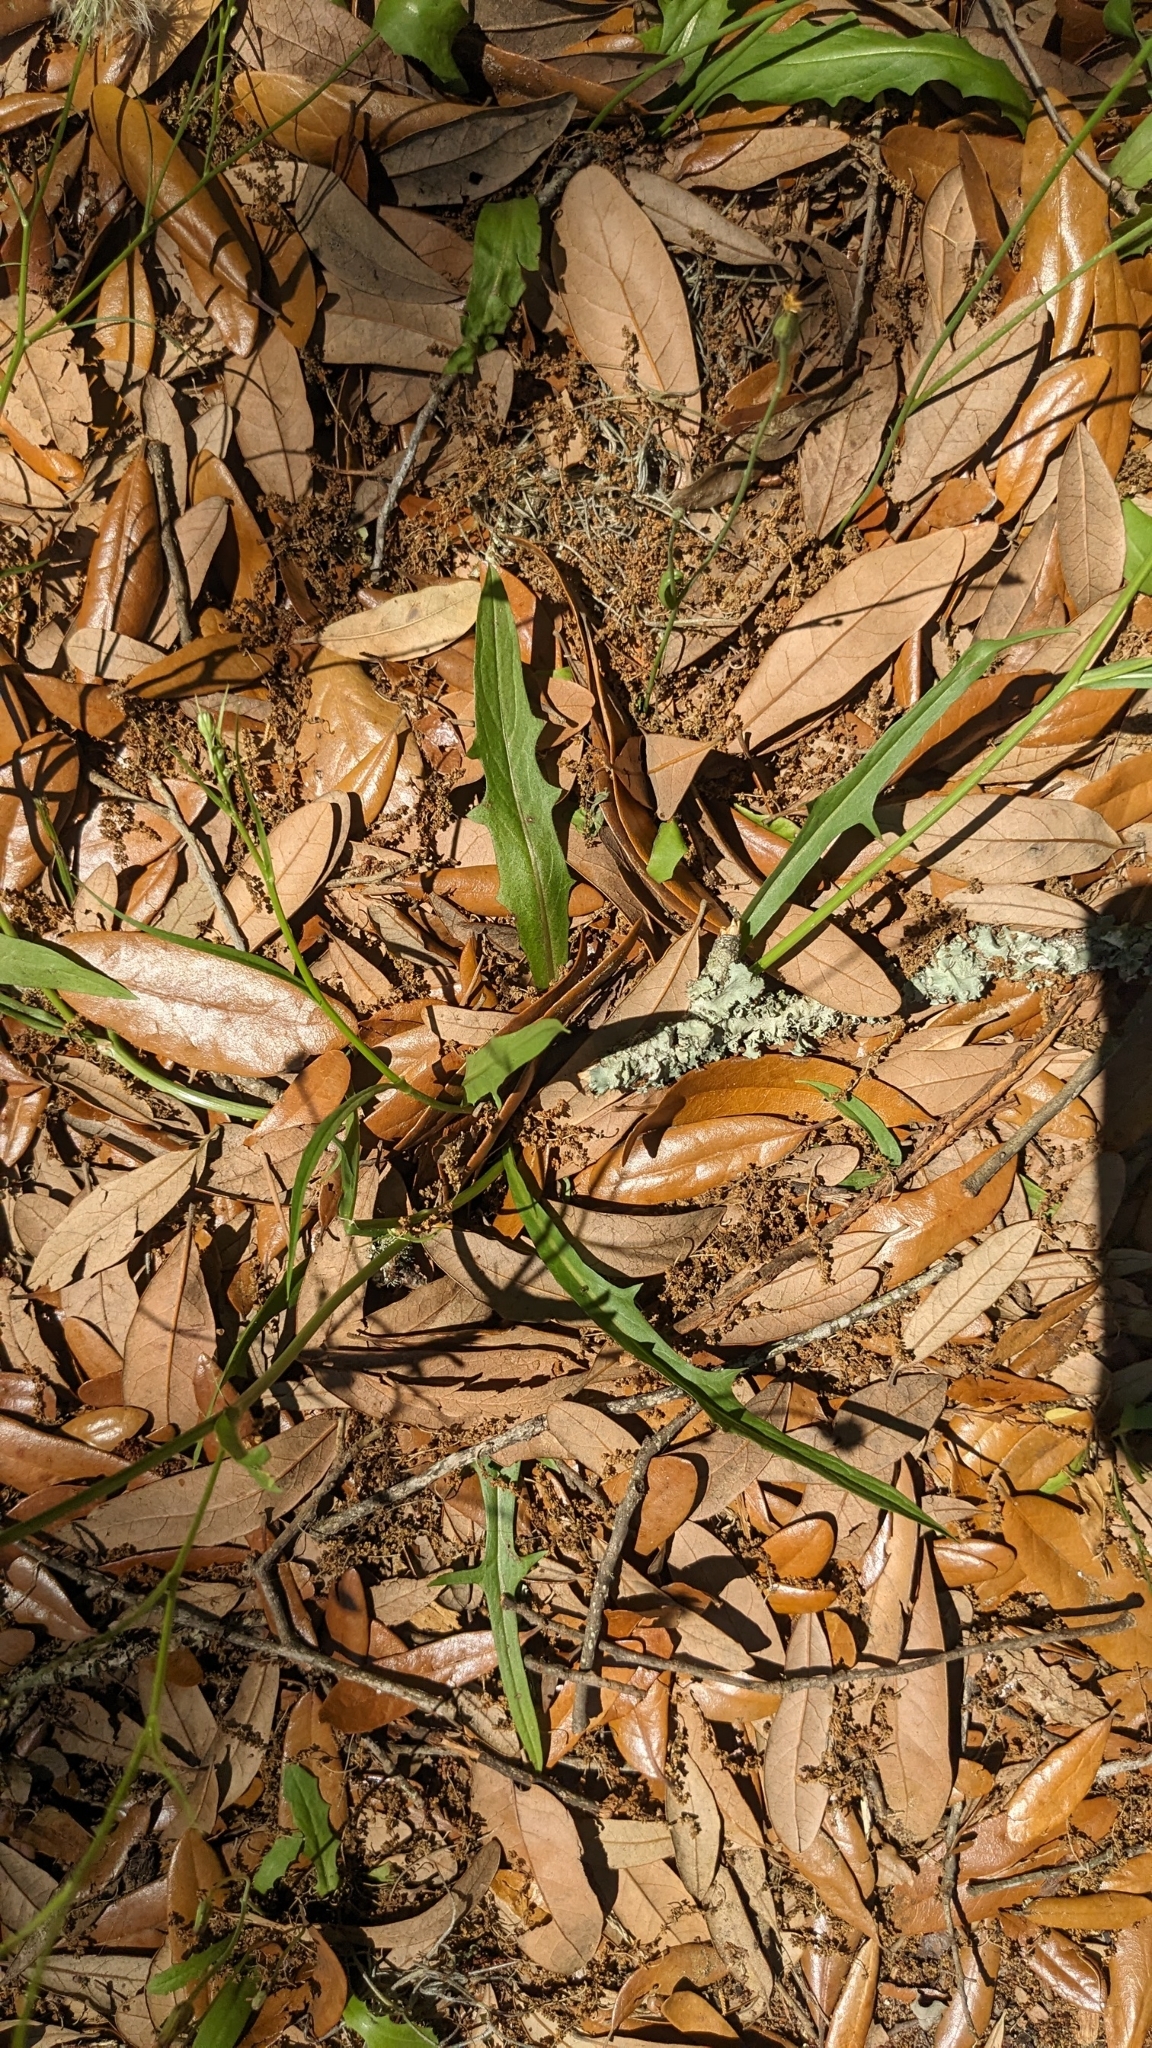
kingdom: Plantae
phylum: Tracheophyta
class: Magnoliopsida
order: Asterales
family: Asteraceae
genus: Hypochaeris
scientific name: Hypochaeris albiflora
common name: White flatweed
